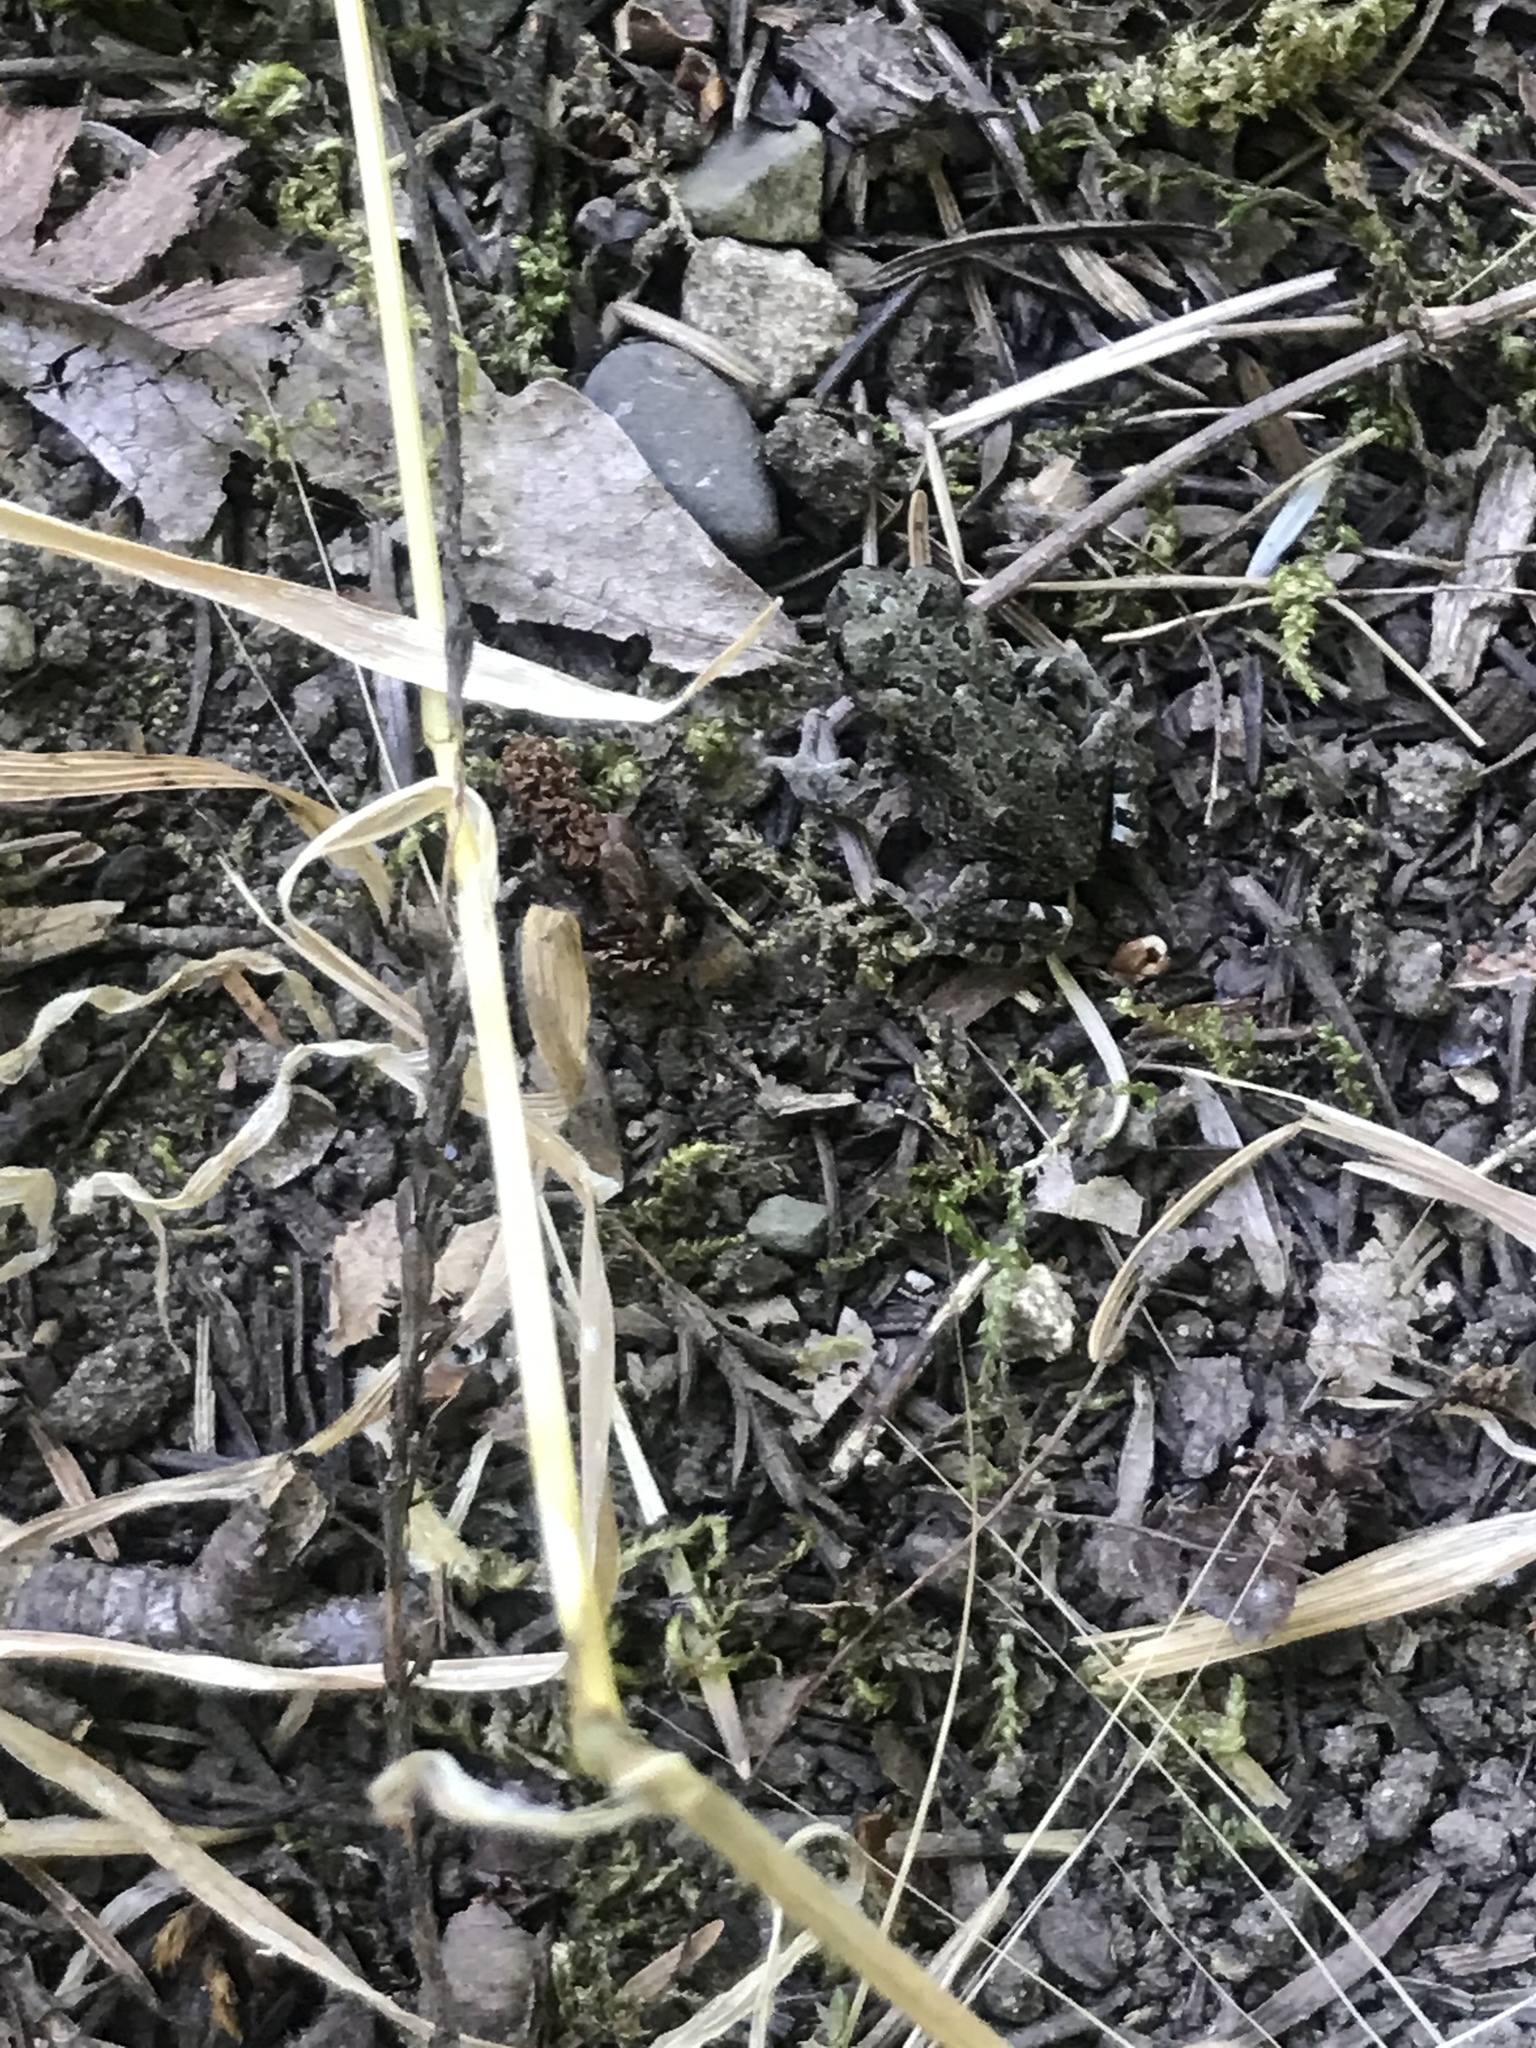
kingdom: Animalia
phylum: Chordata
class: Amphibia
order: Anura
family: Bufonidae
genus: Anaxyrus
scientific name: Anaxyrus boreas
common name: Western toad
